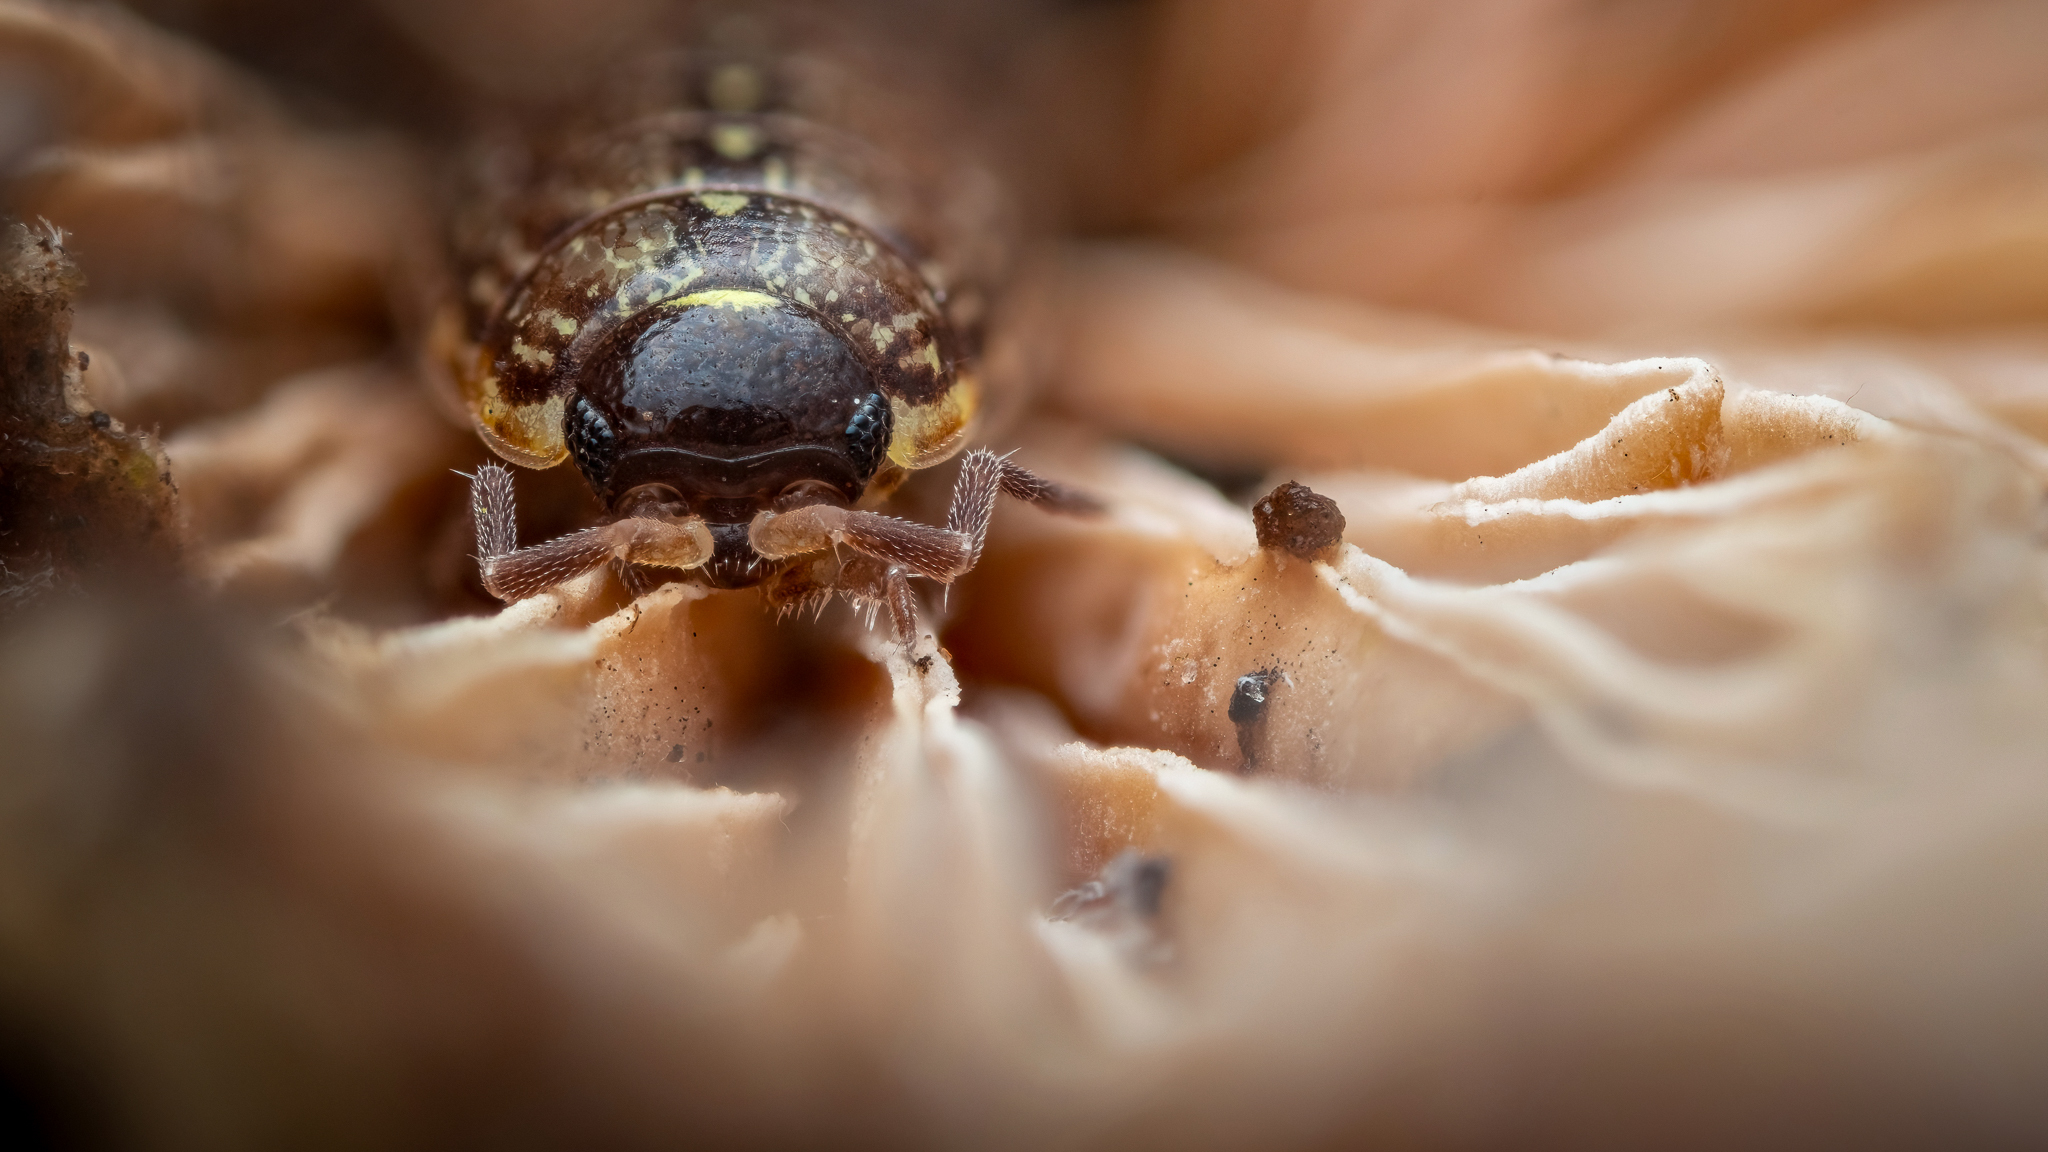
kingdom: Animalia
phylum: Arthropoda
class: Malacostraca
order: Isopoda
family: Philosciidae
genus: Philoscia
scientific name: Philoscia muscorum
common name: Common striped woodlouse
